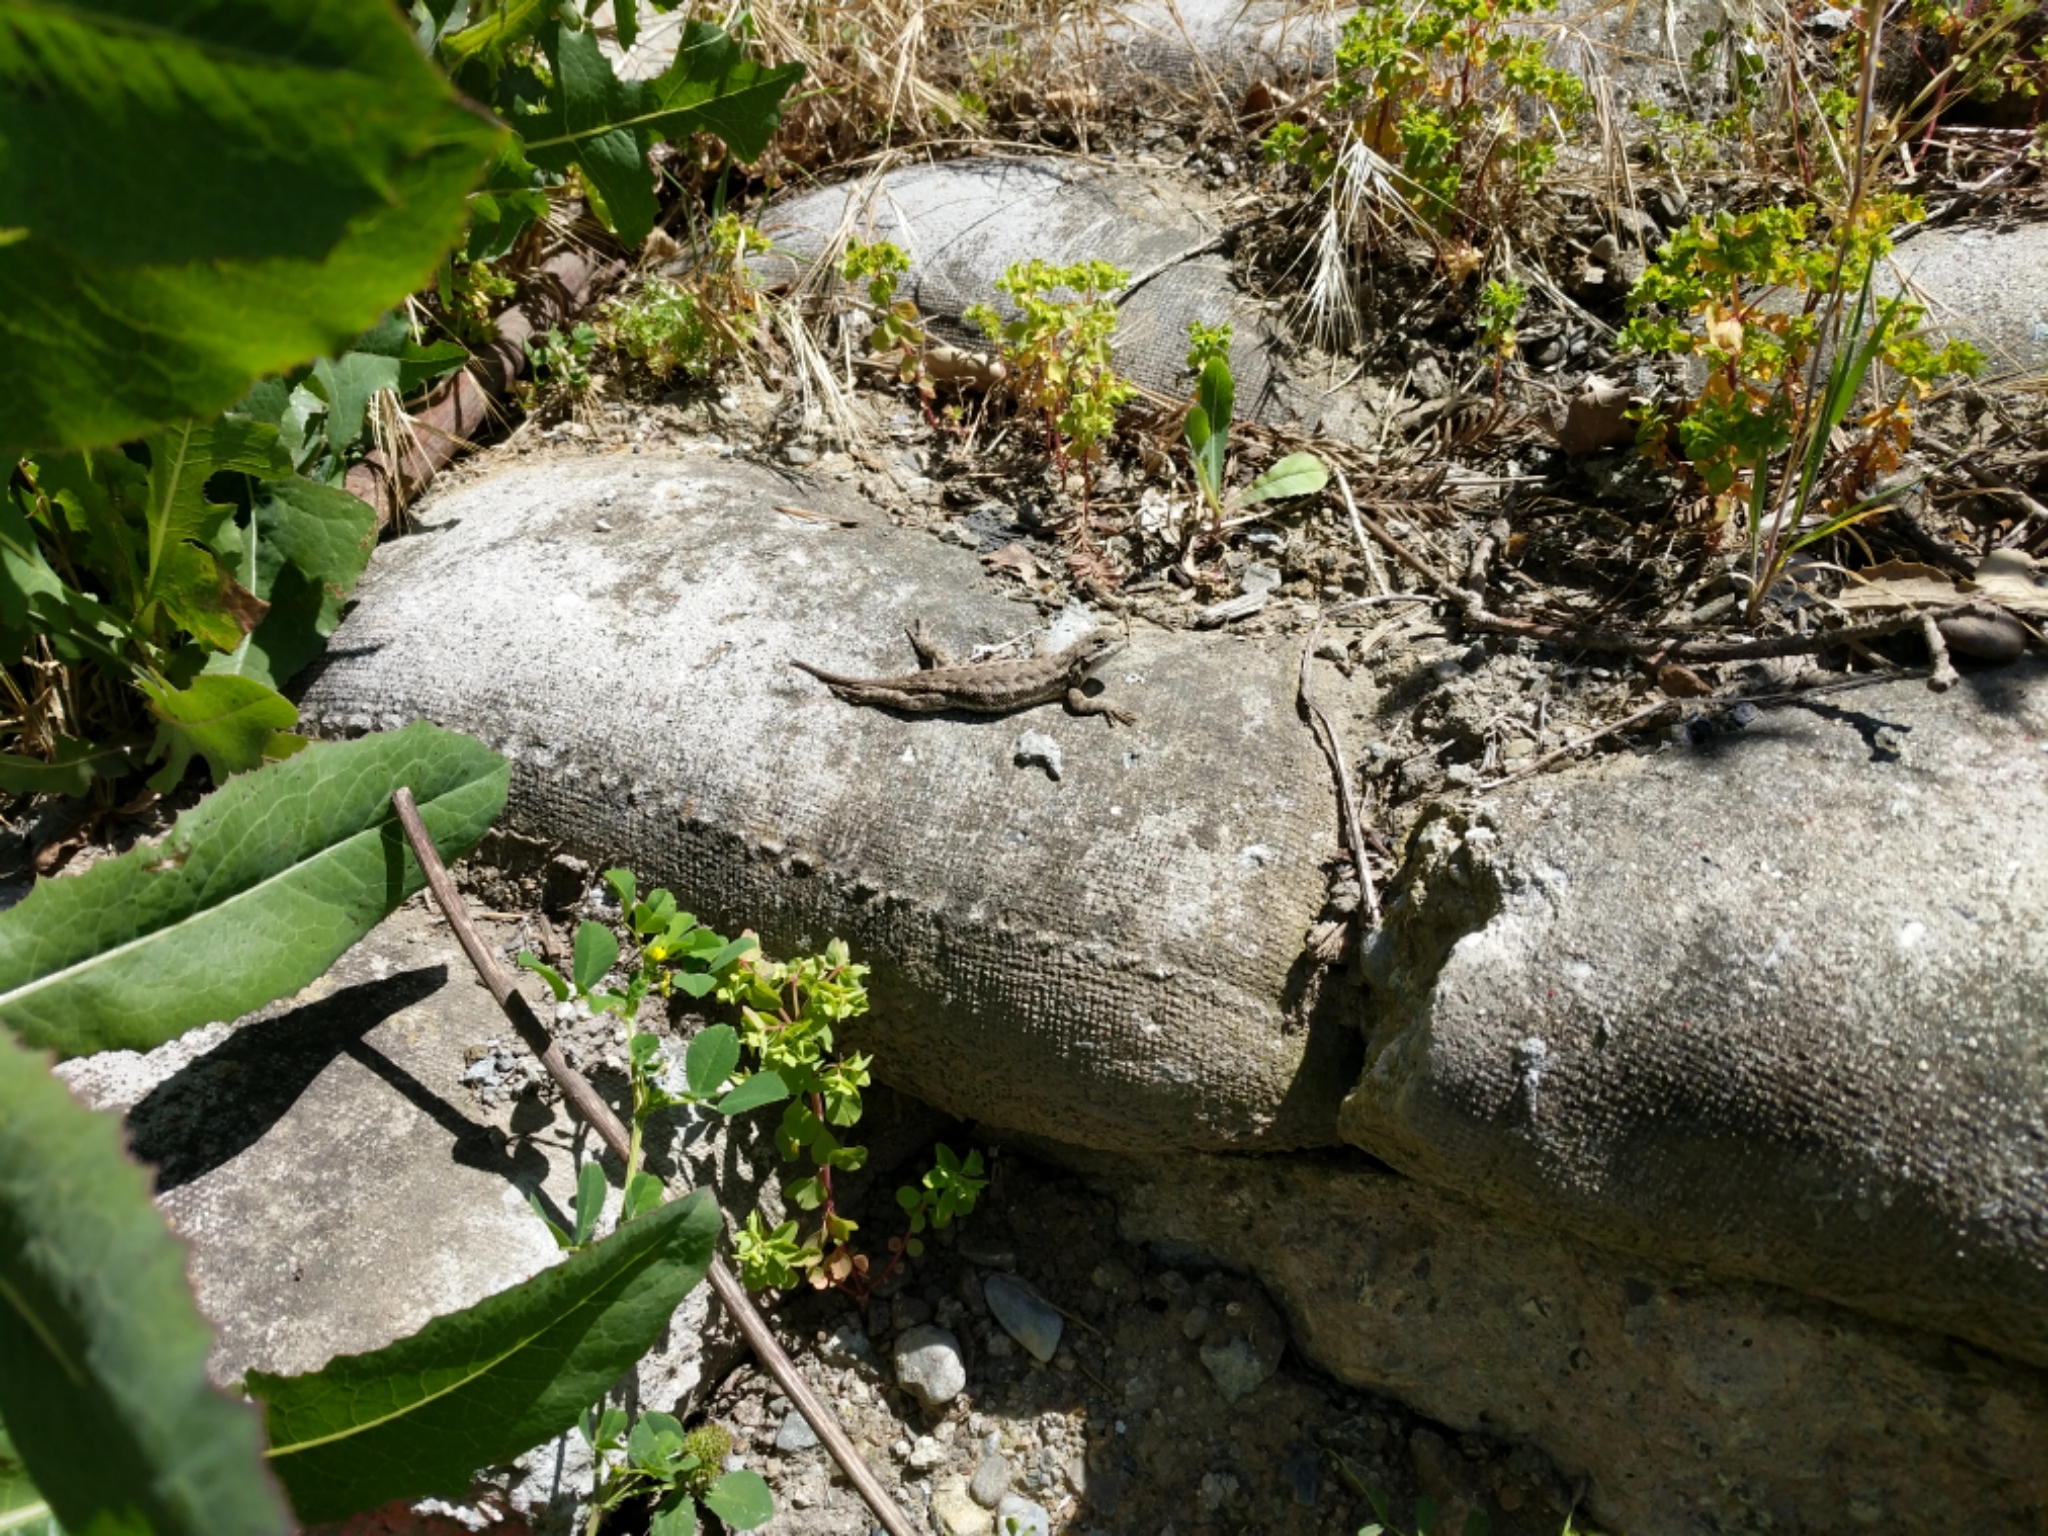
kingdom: Animalia
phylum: Chordata
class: Squamata
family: Phrynosomatidae
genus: Sceloporus
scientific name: Sceloporus occidentalis
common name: Western fence lizard
